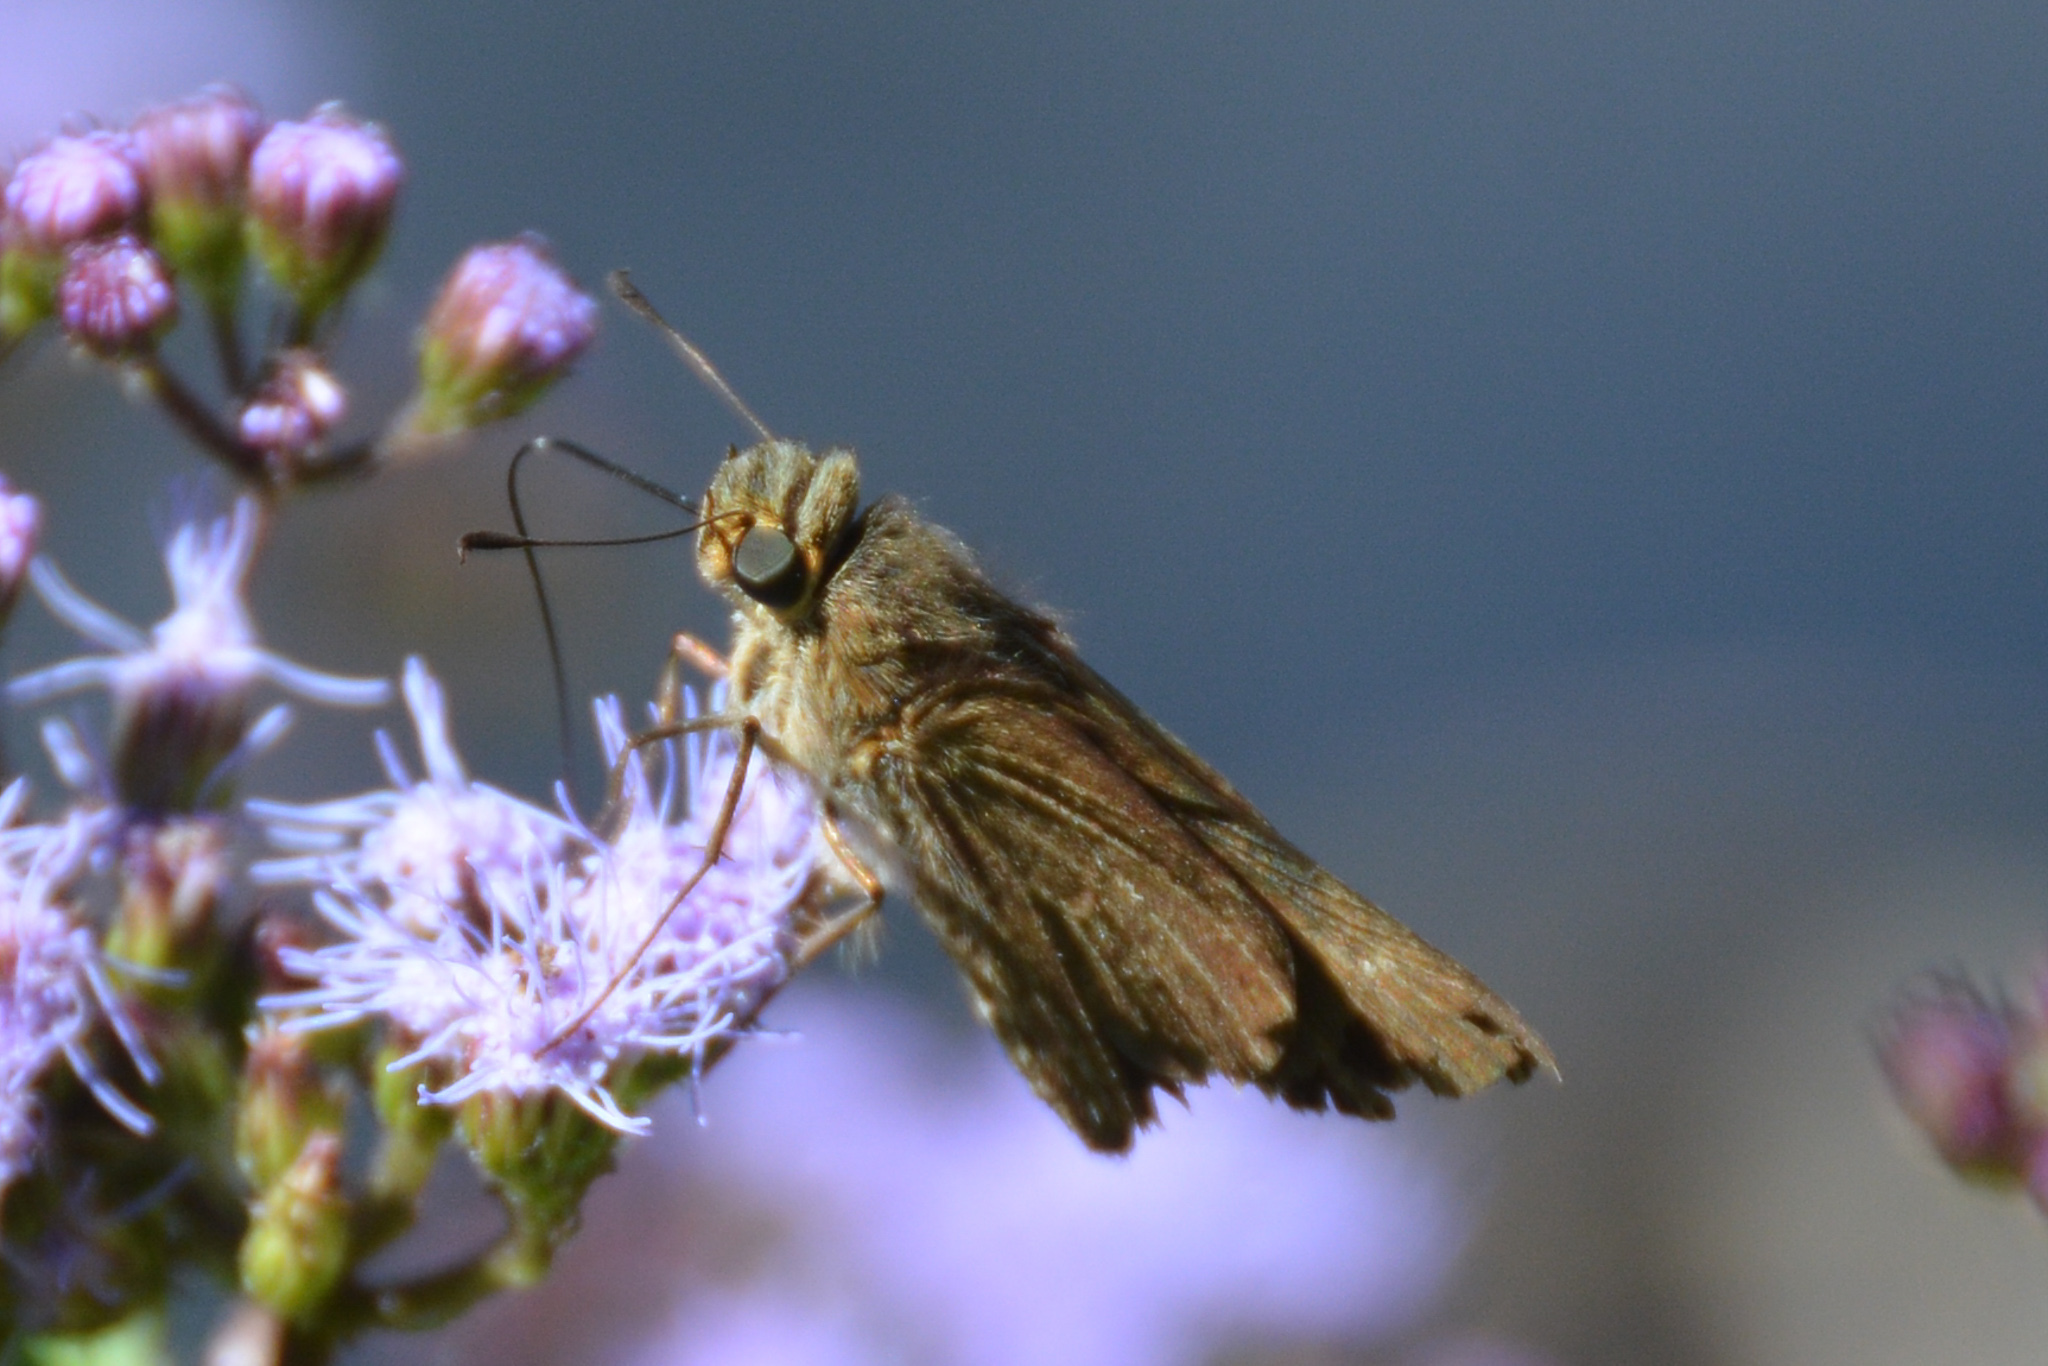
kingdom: Animalia
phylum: Arthropoda
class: Insecta
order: Lepidoptera
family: Hesperiidae
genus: Panoquina
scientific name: Panoquina ocola
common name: Ocola skipper
